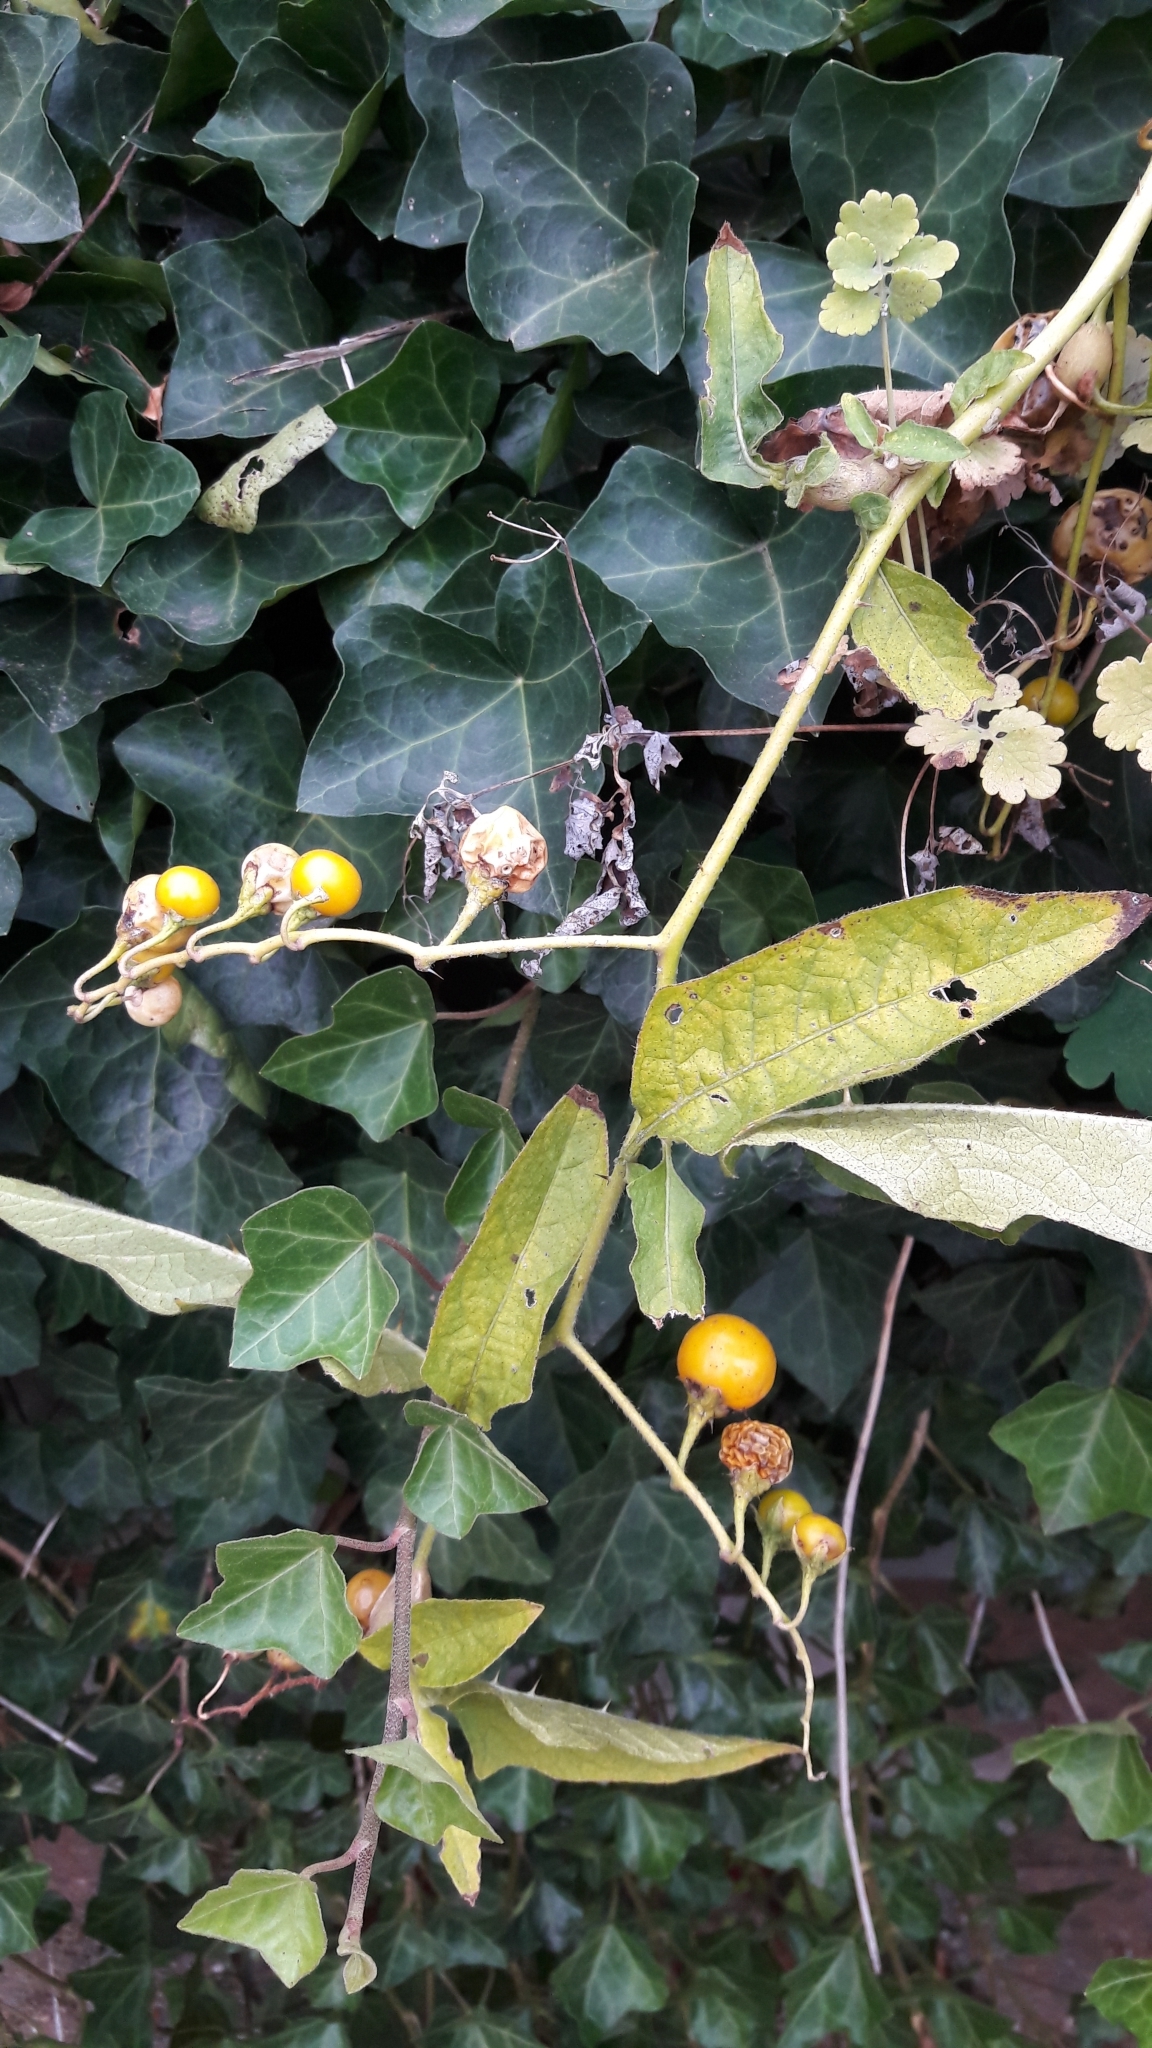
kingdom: Plantae
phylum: Tracheophyta
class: Magnoliopsida
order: Solanales
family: Solanaceae
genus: Solanum
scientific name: Solanum carolinense
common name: Horse-nettle
